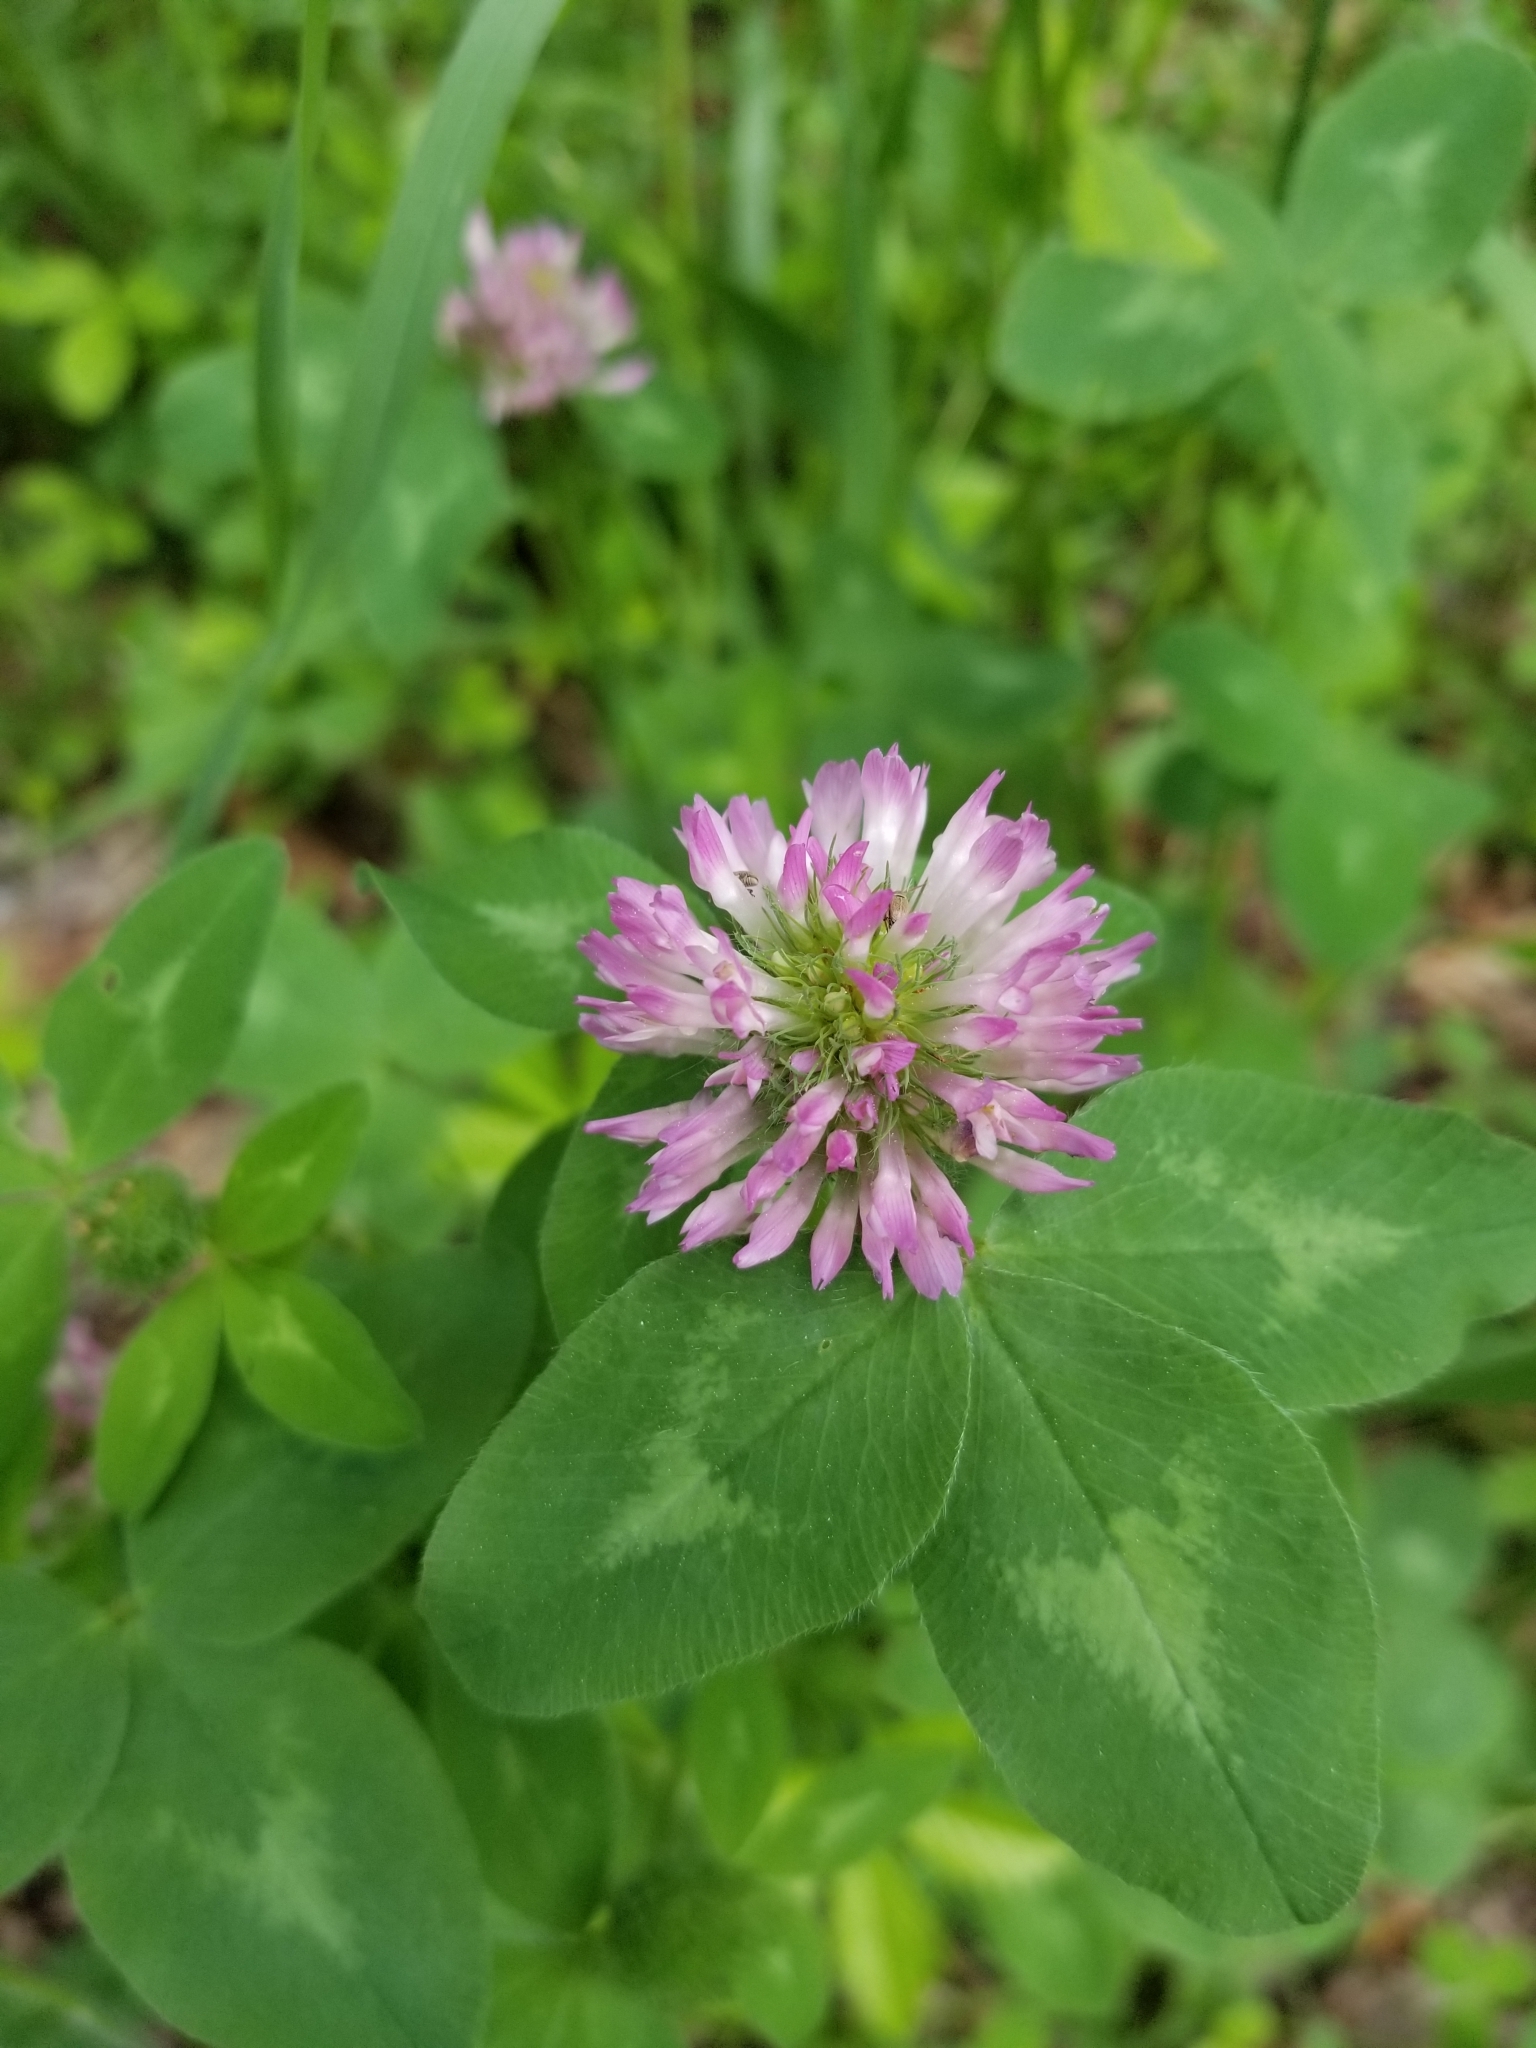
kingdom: Plantae
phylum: Tracheophyta
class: Magnoliopsida
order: Fabales
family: Fabaceae
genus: Trifolium
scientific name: Trifolium pratense
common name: Red clover
